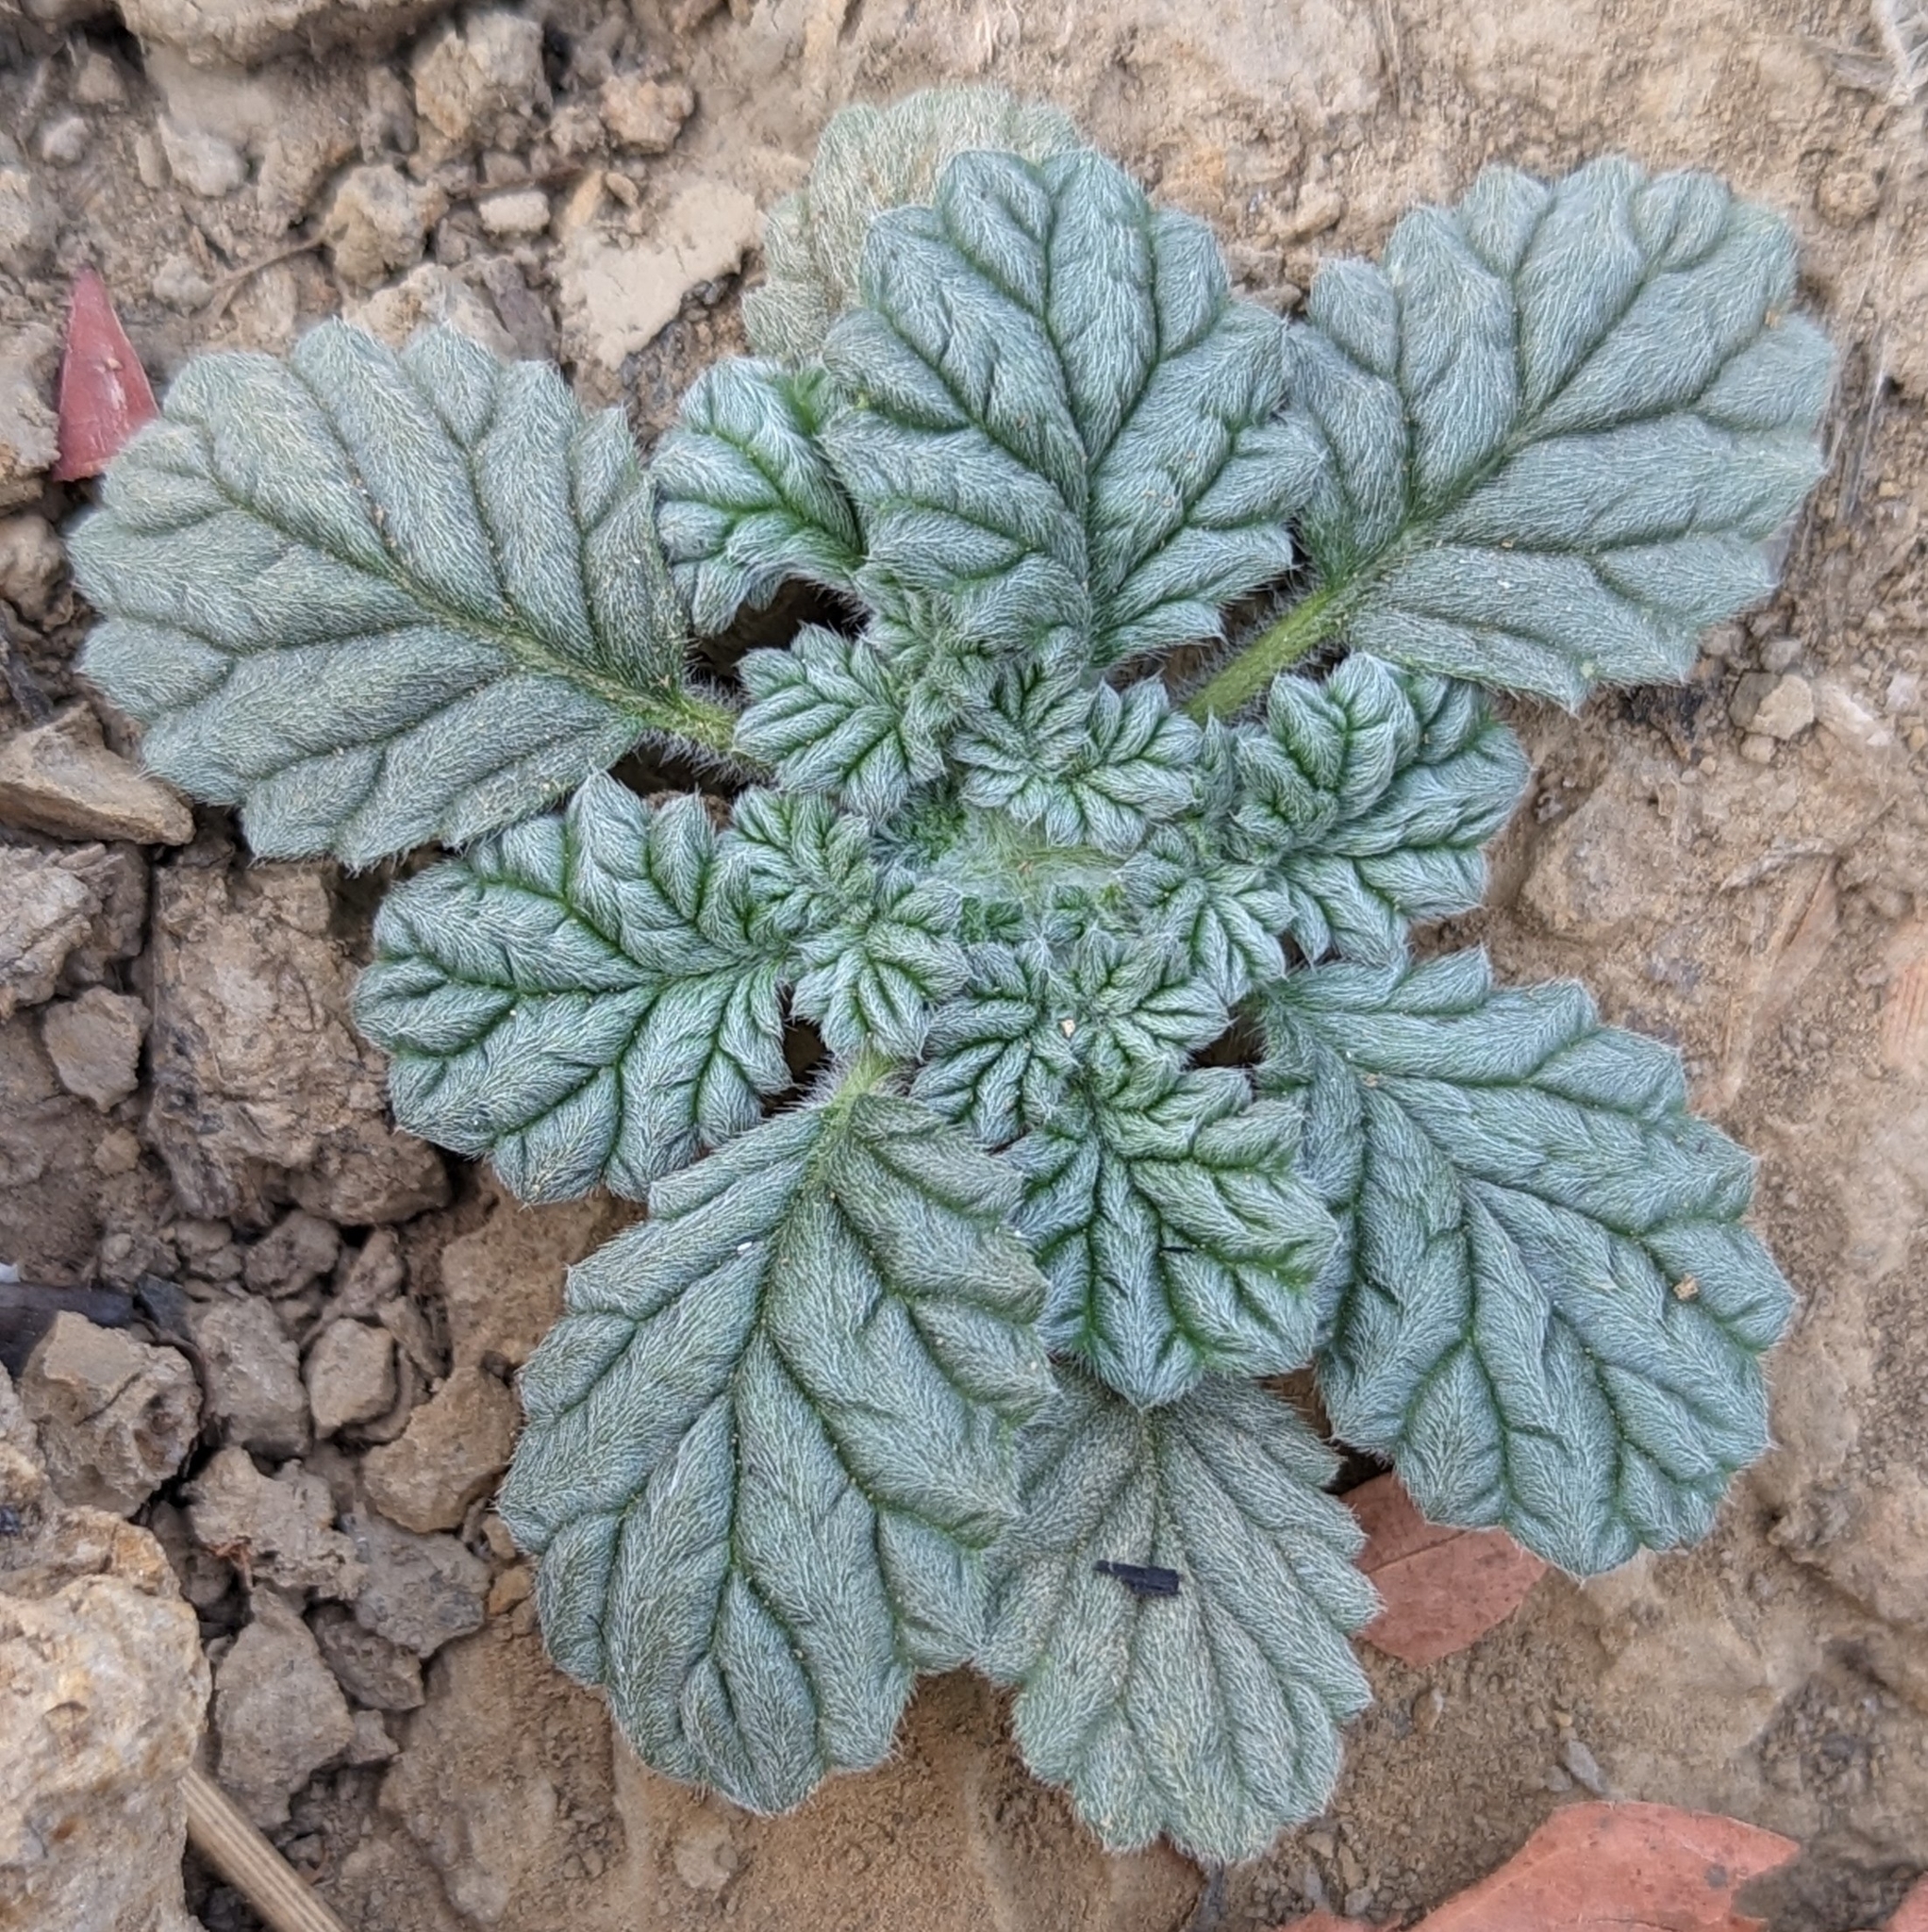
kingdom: Plantae
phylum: Tracheophyta
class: Magnoliopsida
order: Boraginales
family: Coldeniaceae
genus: Coldenia
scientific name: Coldenia procumbens
